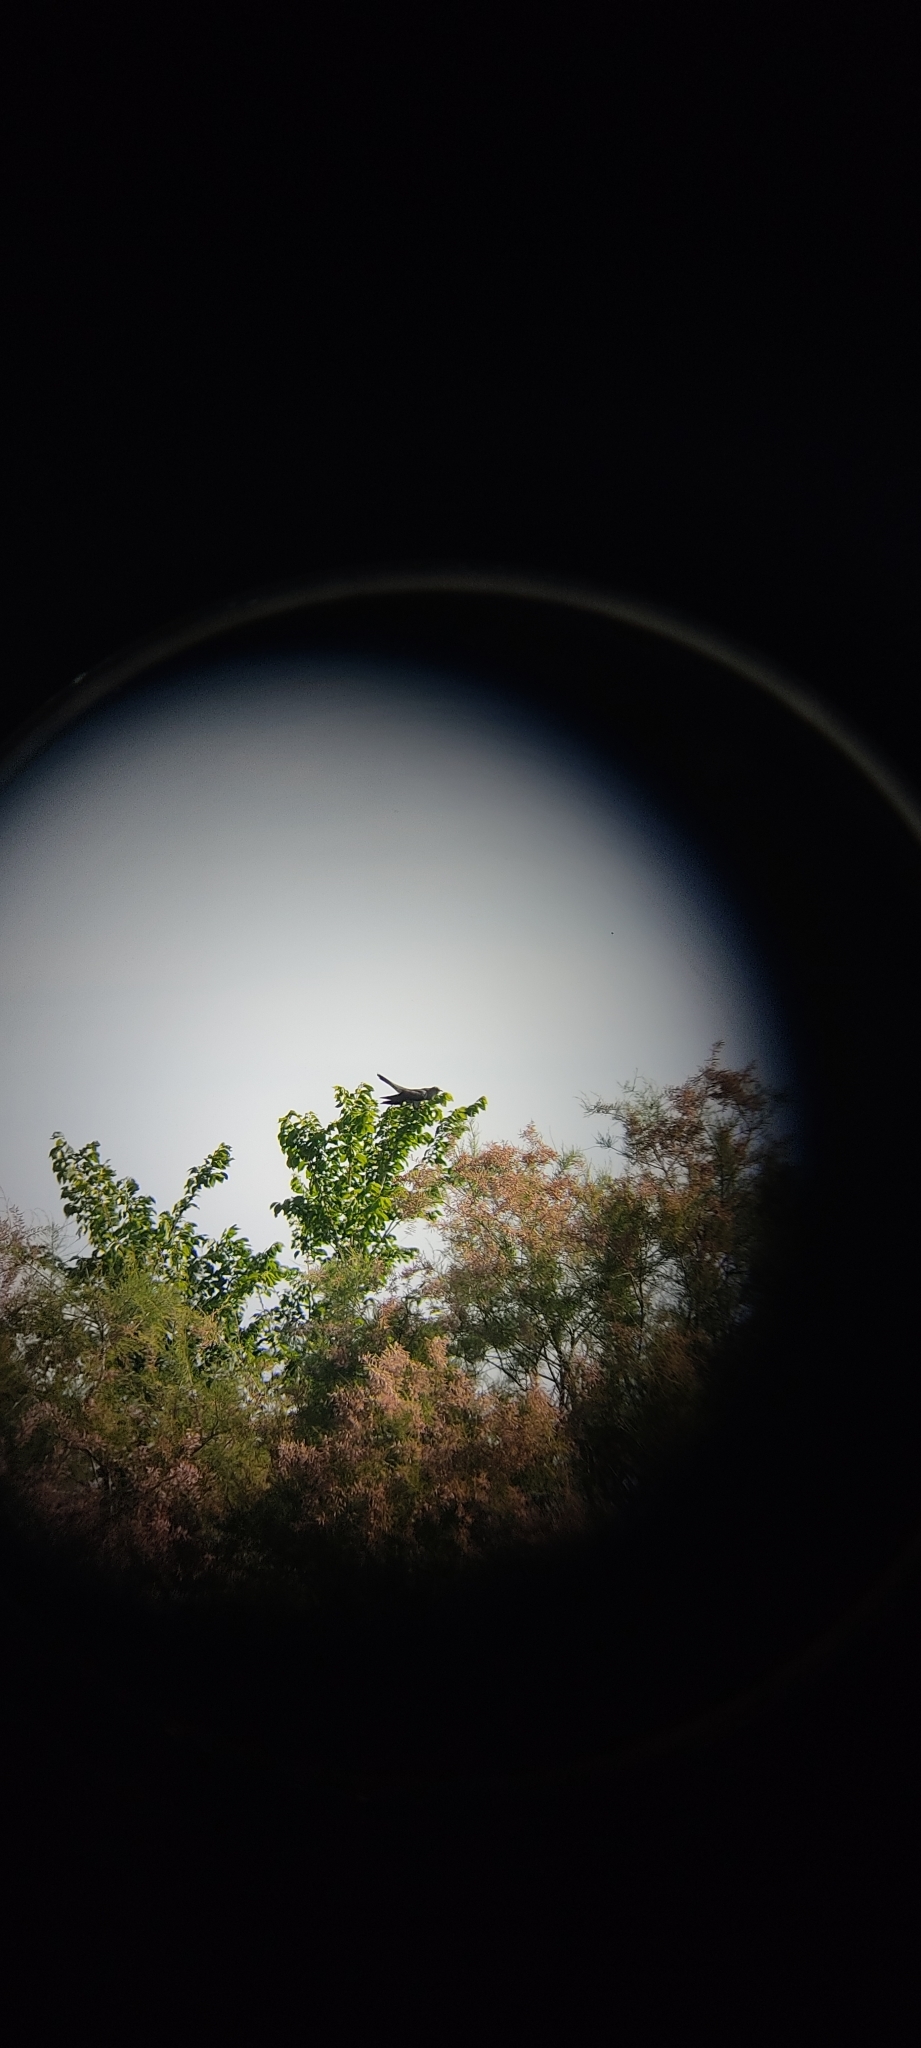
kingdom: Animalia
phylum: Chordata
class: Aves
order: Cuculiformes
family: Cuculidae
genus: Cuculus
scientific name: Cuculus canorus
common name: Common cuckoo
